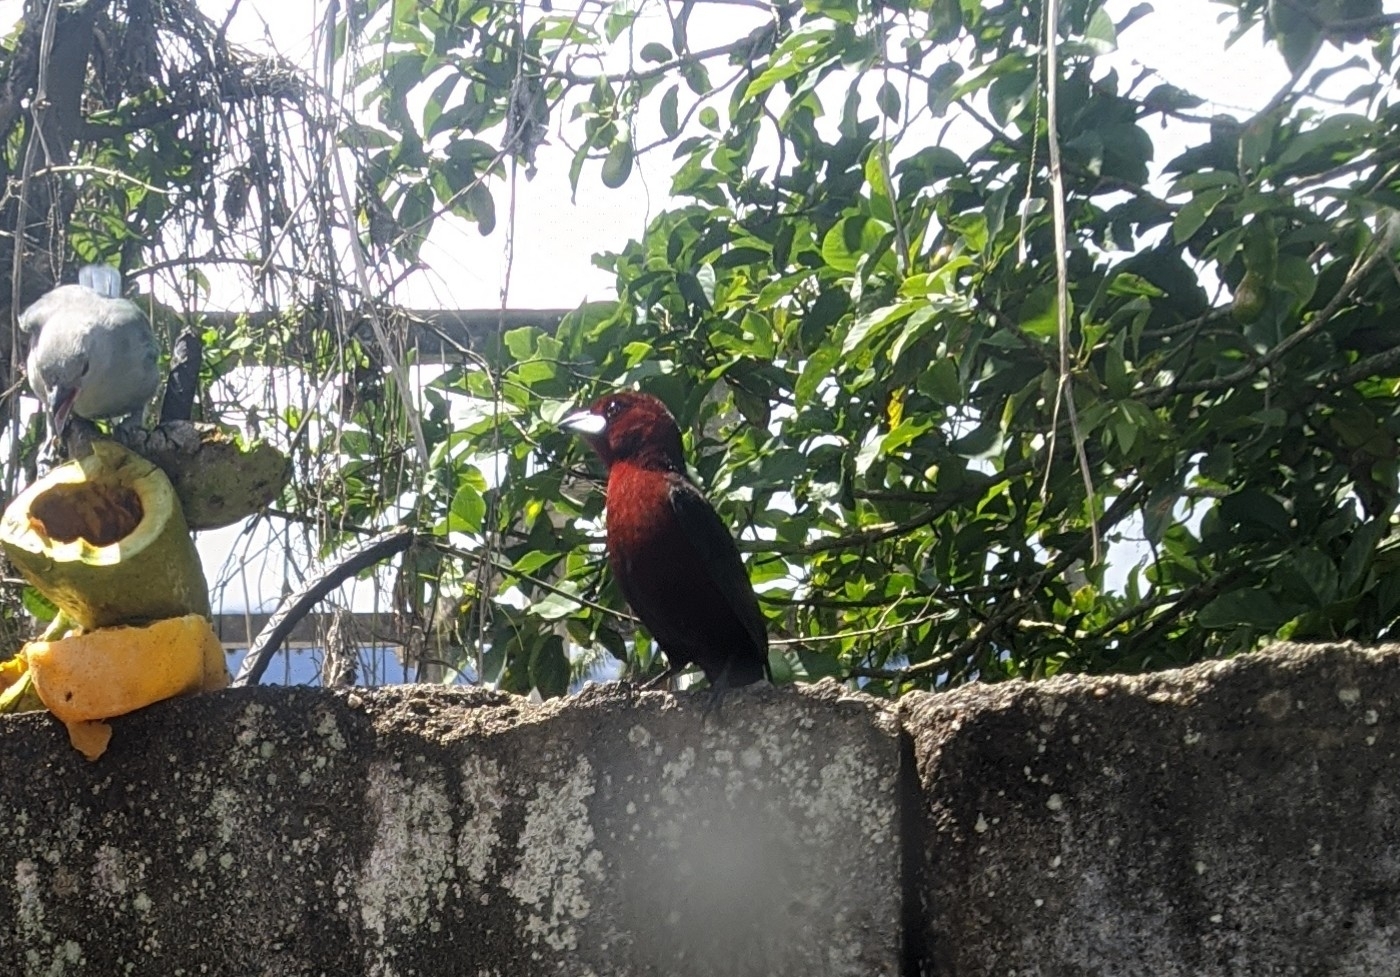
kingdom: Animalia
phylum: Chordata
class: Aves
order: Passeriformes
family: Thraupidae
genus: Ramphocelus
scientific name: Ramphocelus carbo
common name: Silver-beaked tanager
